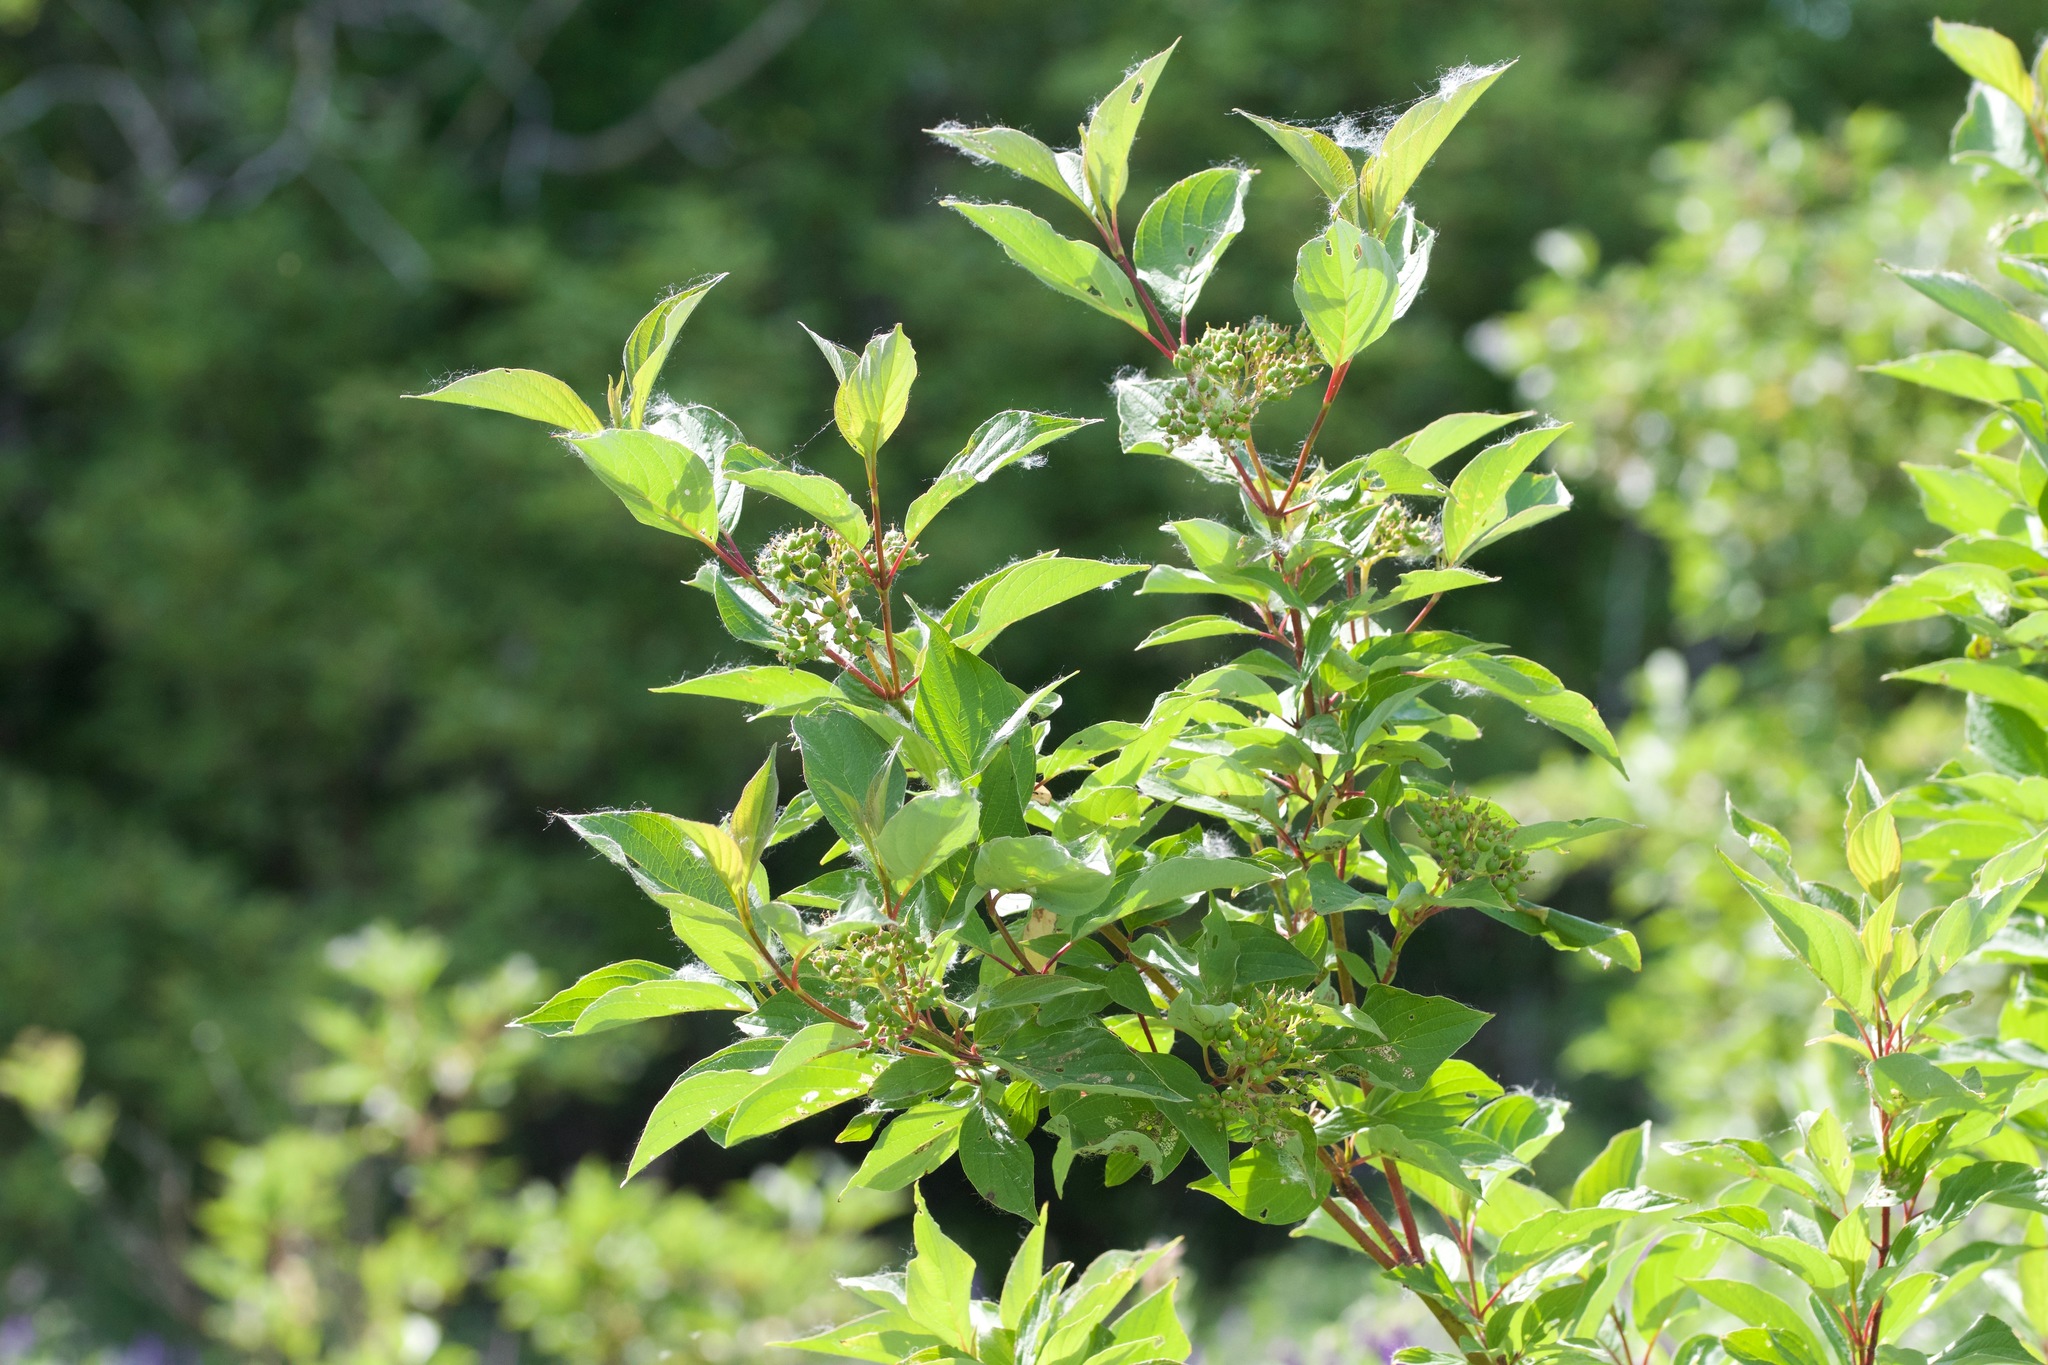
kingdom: Plantae
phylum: Tracheophyta
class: Magnoliopsida
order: Cornales
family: Cornaceae
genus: Cornus
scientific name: Cornus sericea
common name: Red-osier dogwood
